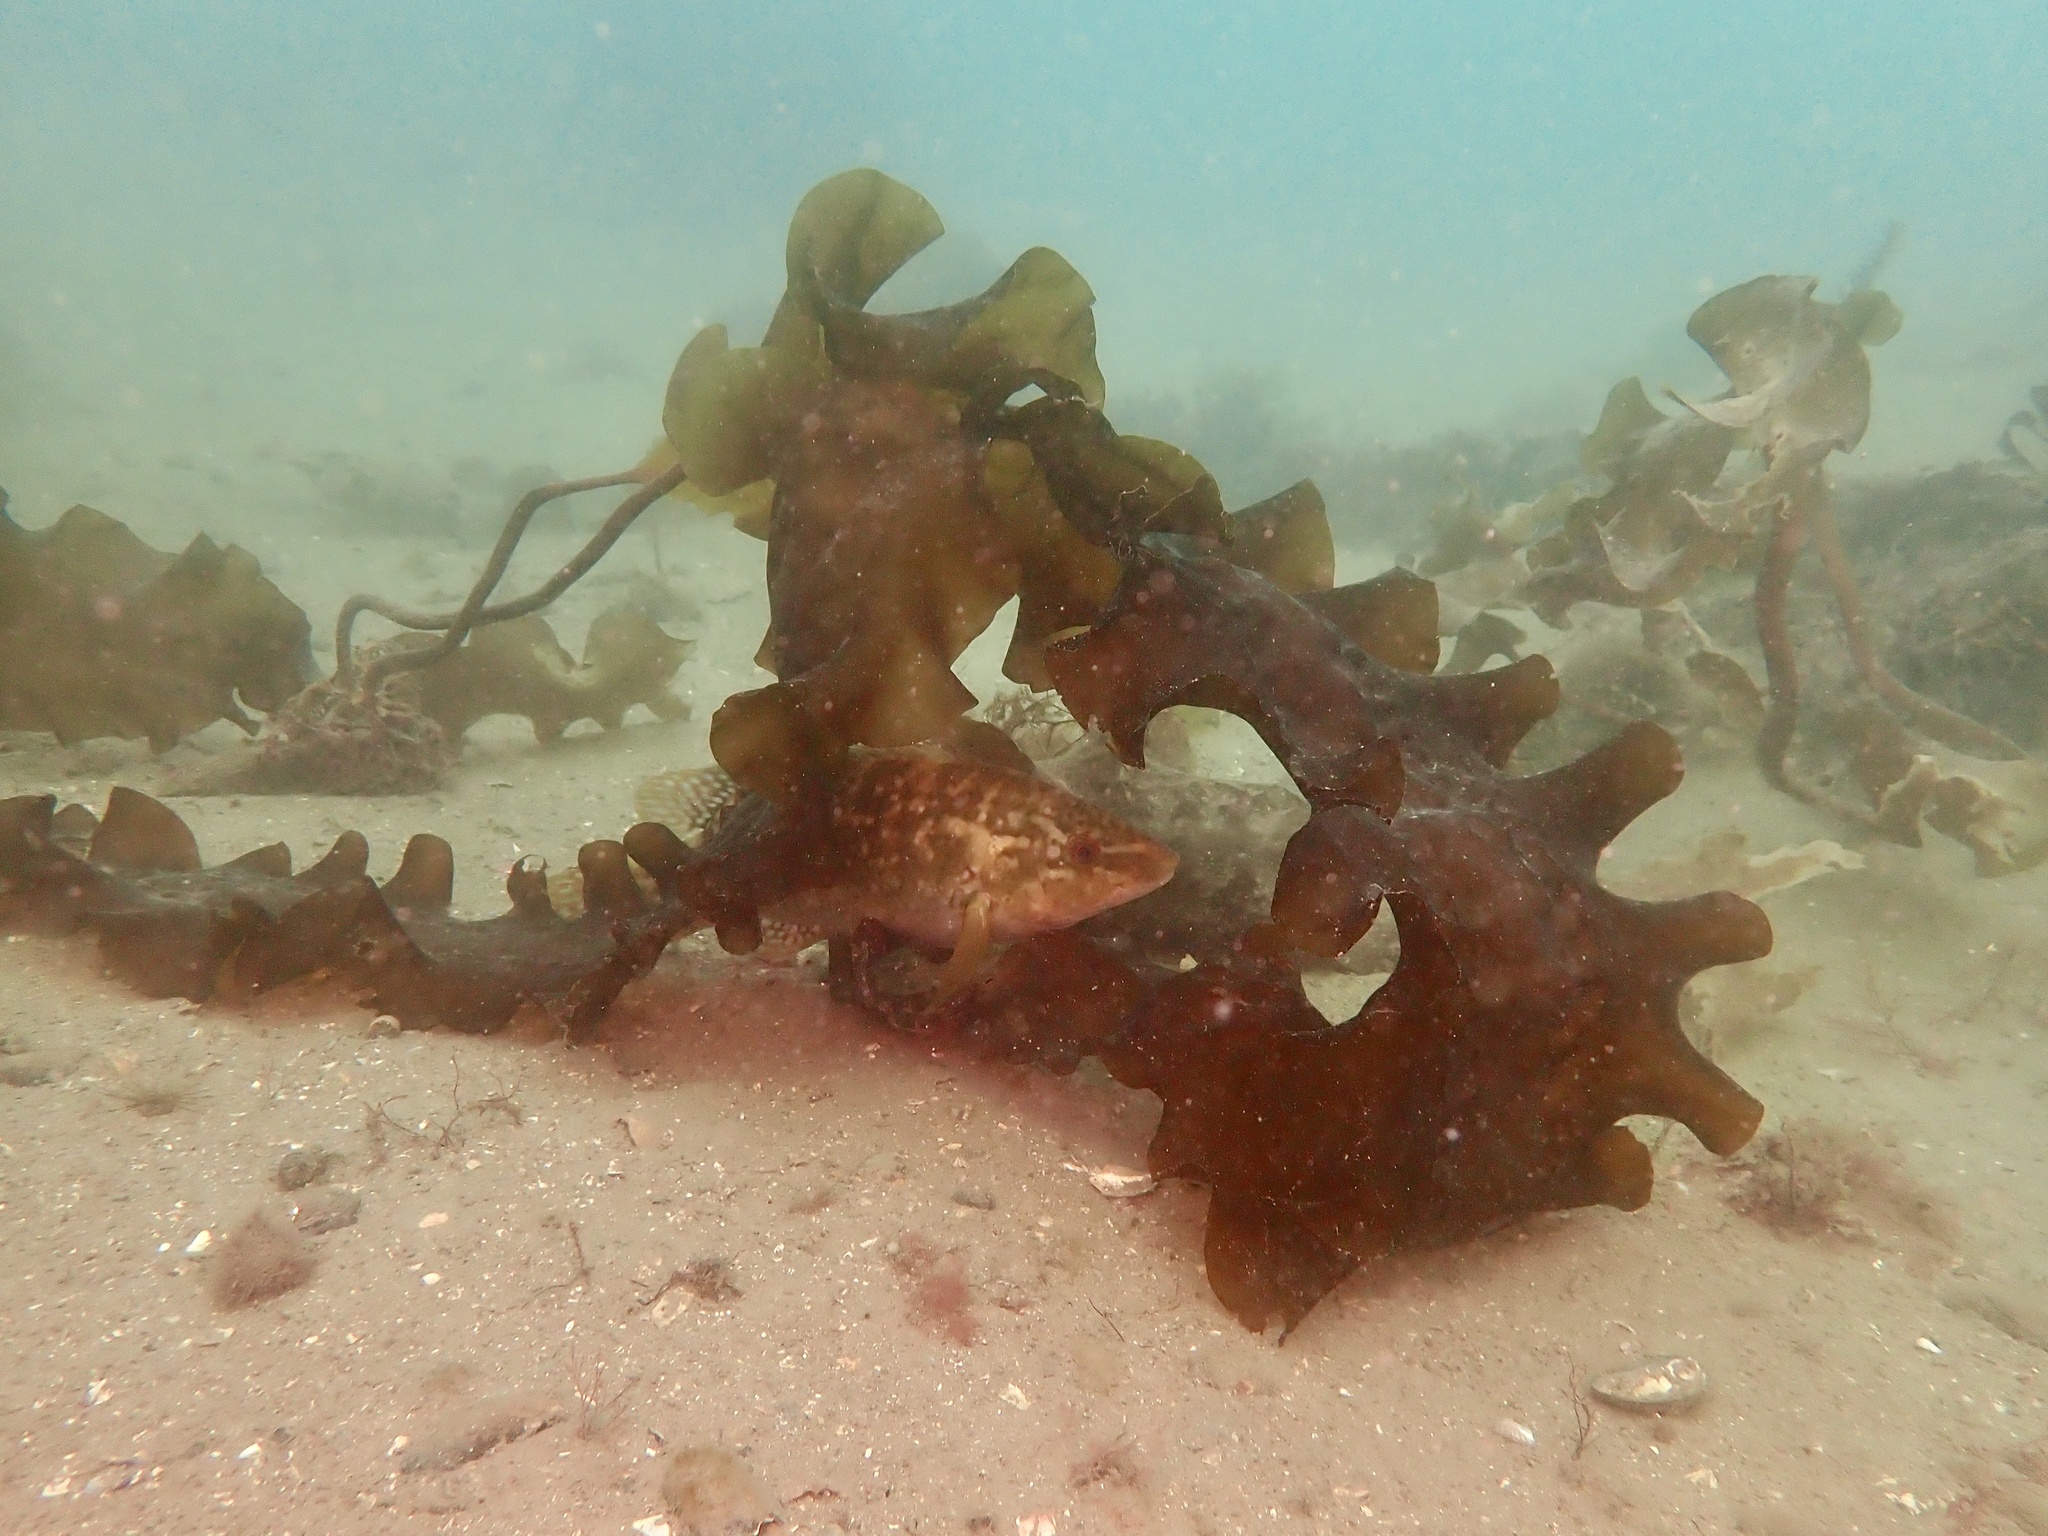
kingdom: Chromista
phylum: Ochrophyta
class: Phaeophyceae
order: Laminariales
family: Laminariaceae
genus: Saccharina
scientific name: Saccharina latissima
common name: Poor man's weather glass
